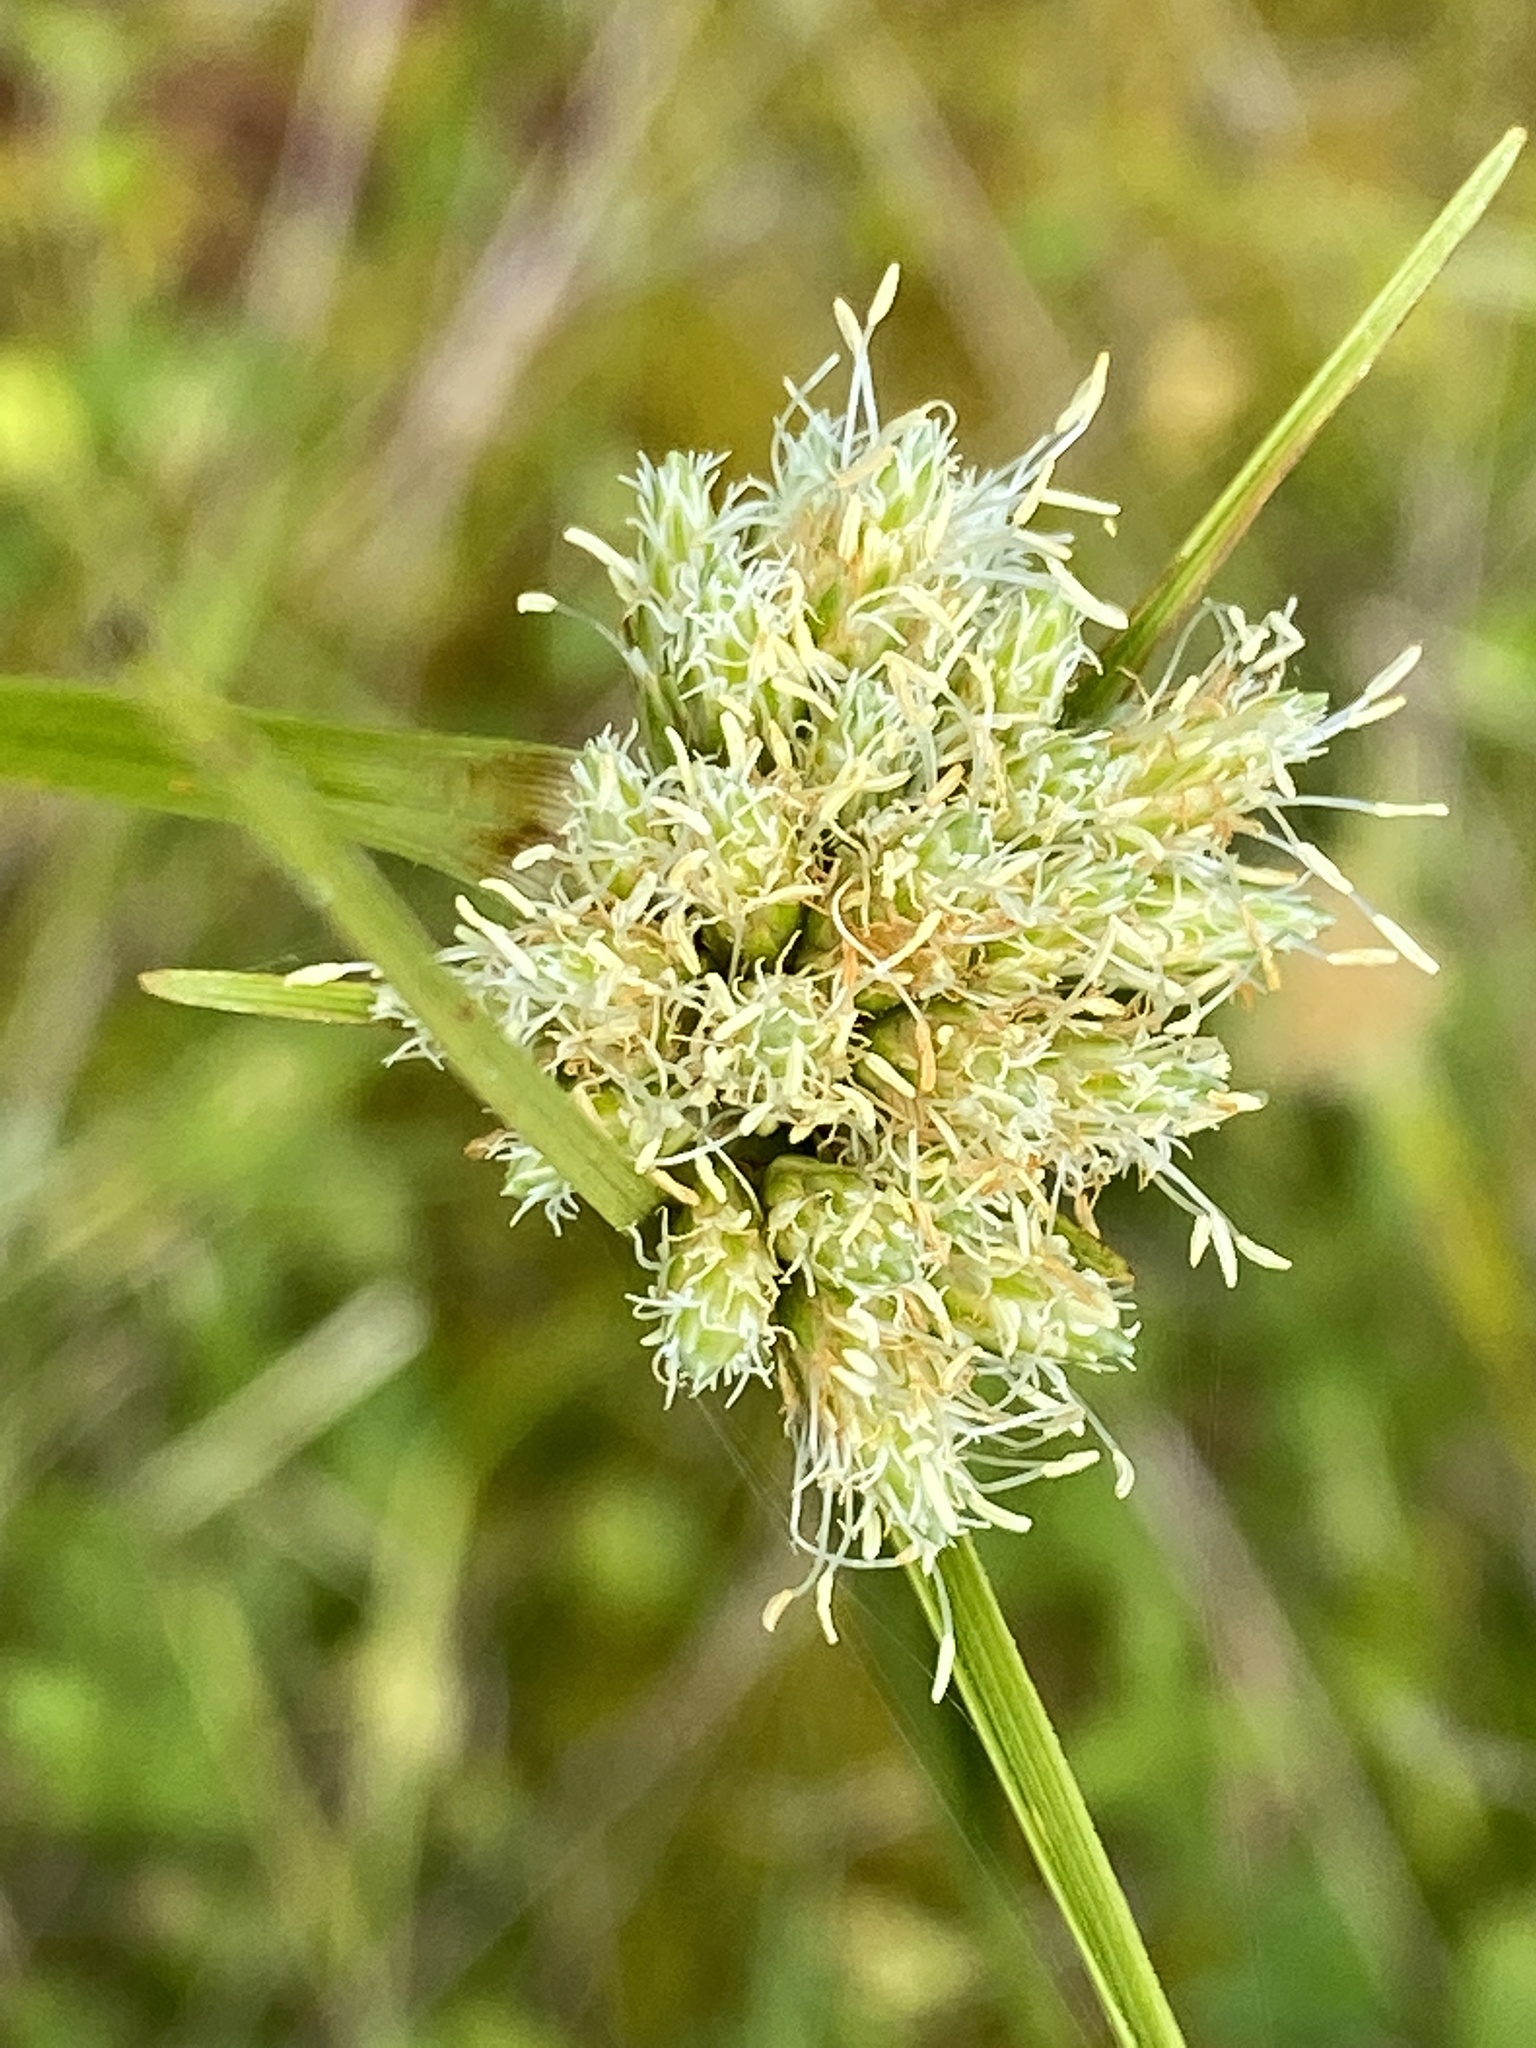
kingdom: Plantae
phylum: Tracheophyta
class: Liliopsida
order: Poales
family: Cyperaceae
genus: Eriophorum
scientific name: Eriophorum virginicum
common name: Tawny cottongrass
